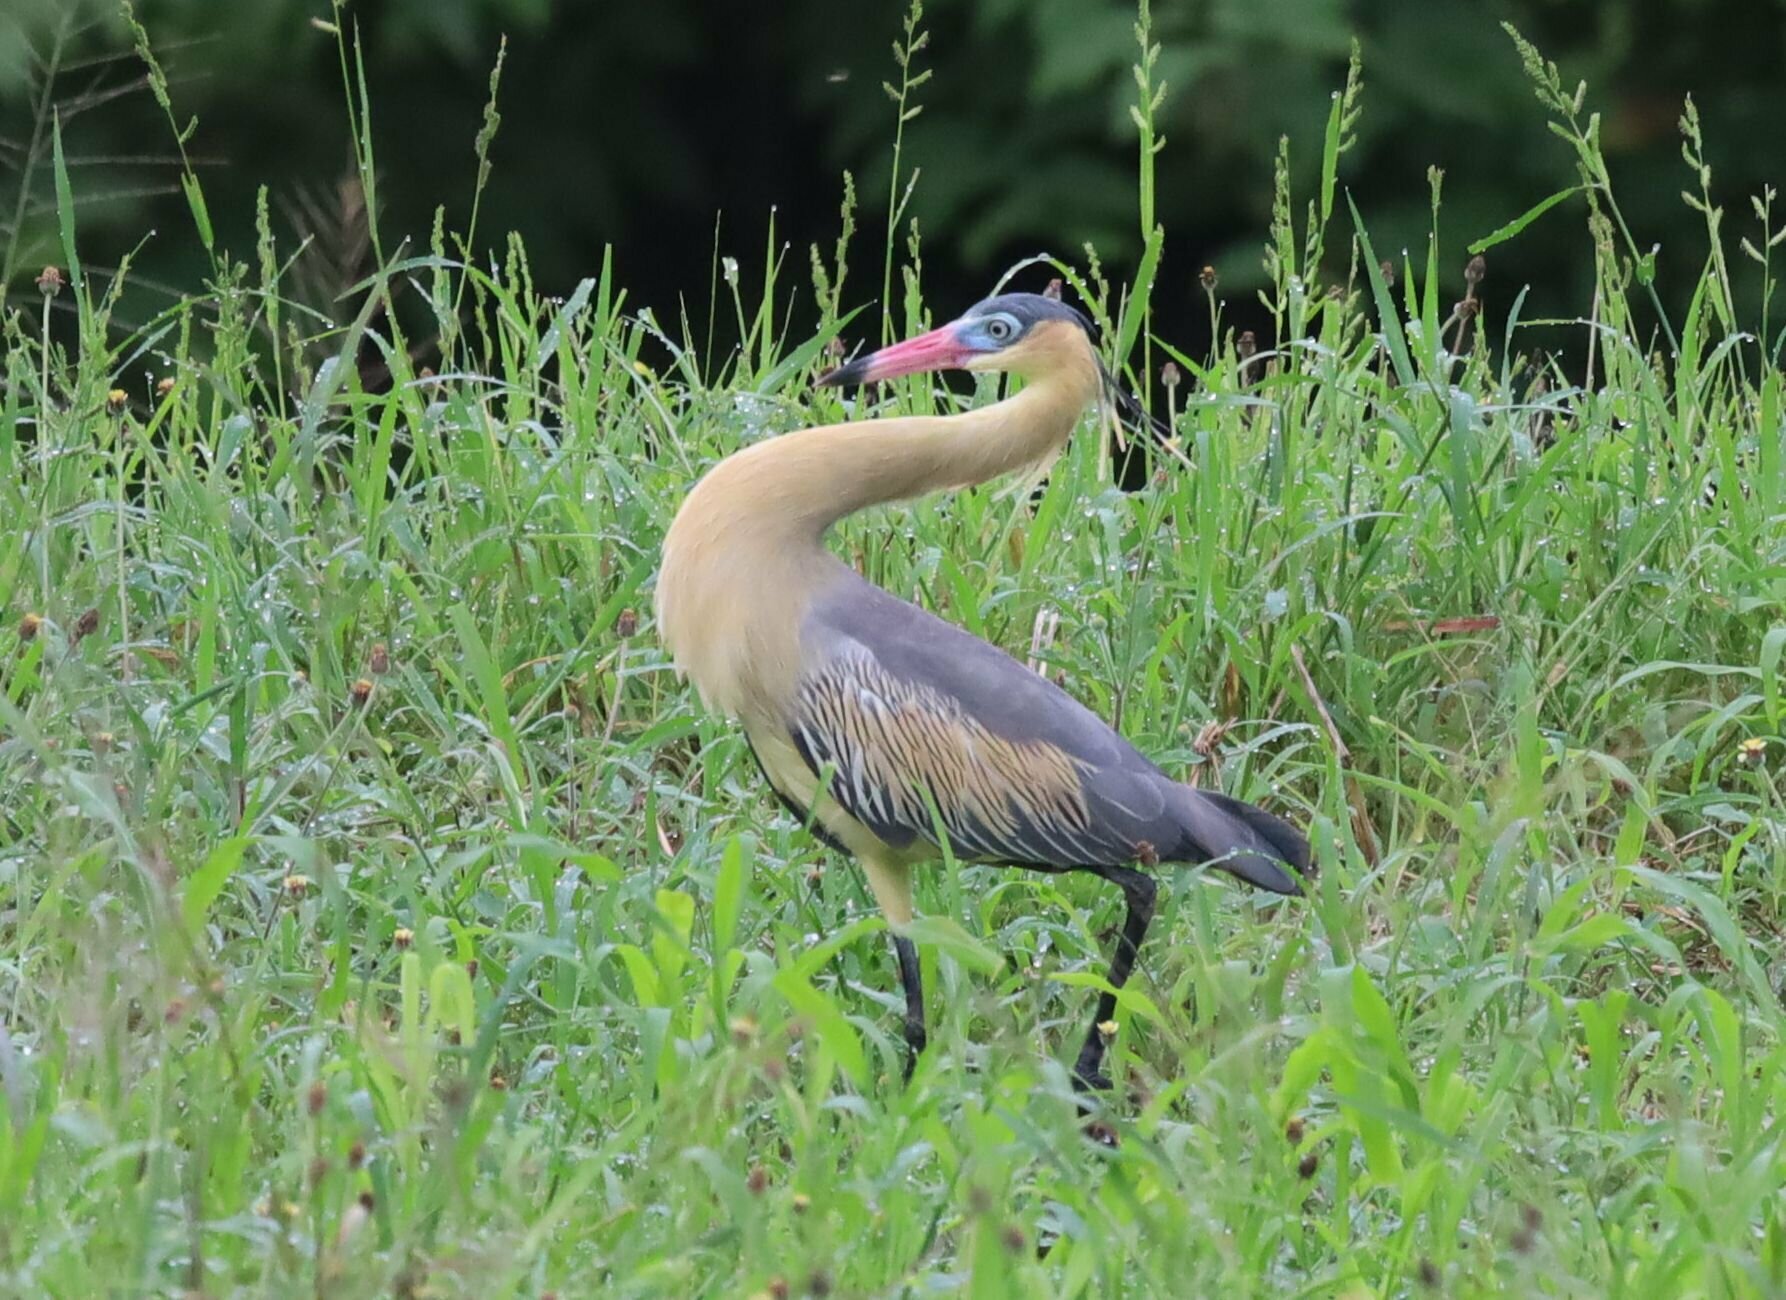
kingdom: Animalia
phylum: Chordata
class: Aves
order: Pelecaniformes
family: Ardeidae
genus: Syrigma
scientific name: Syrigma sibilatrix
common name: Whistling heron
